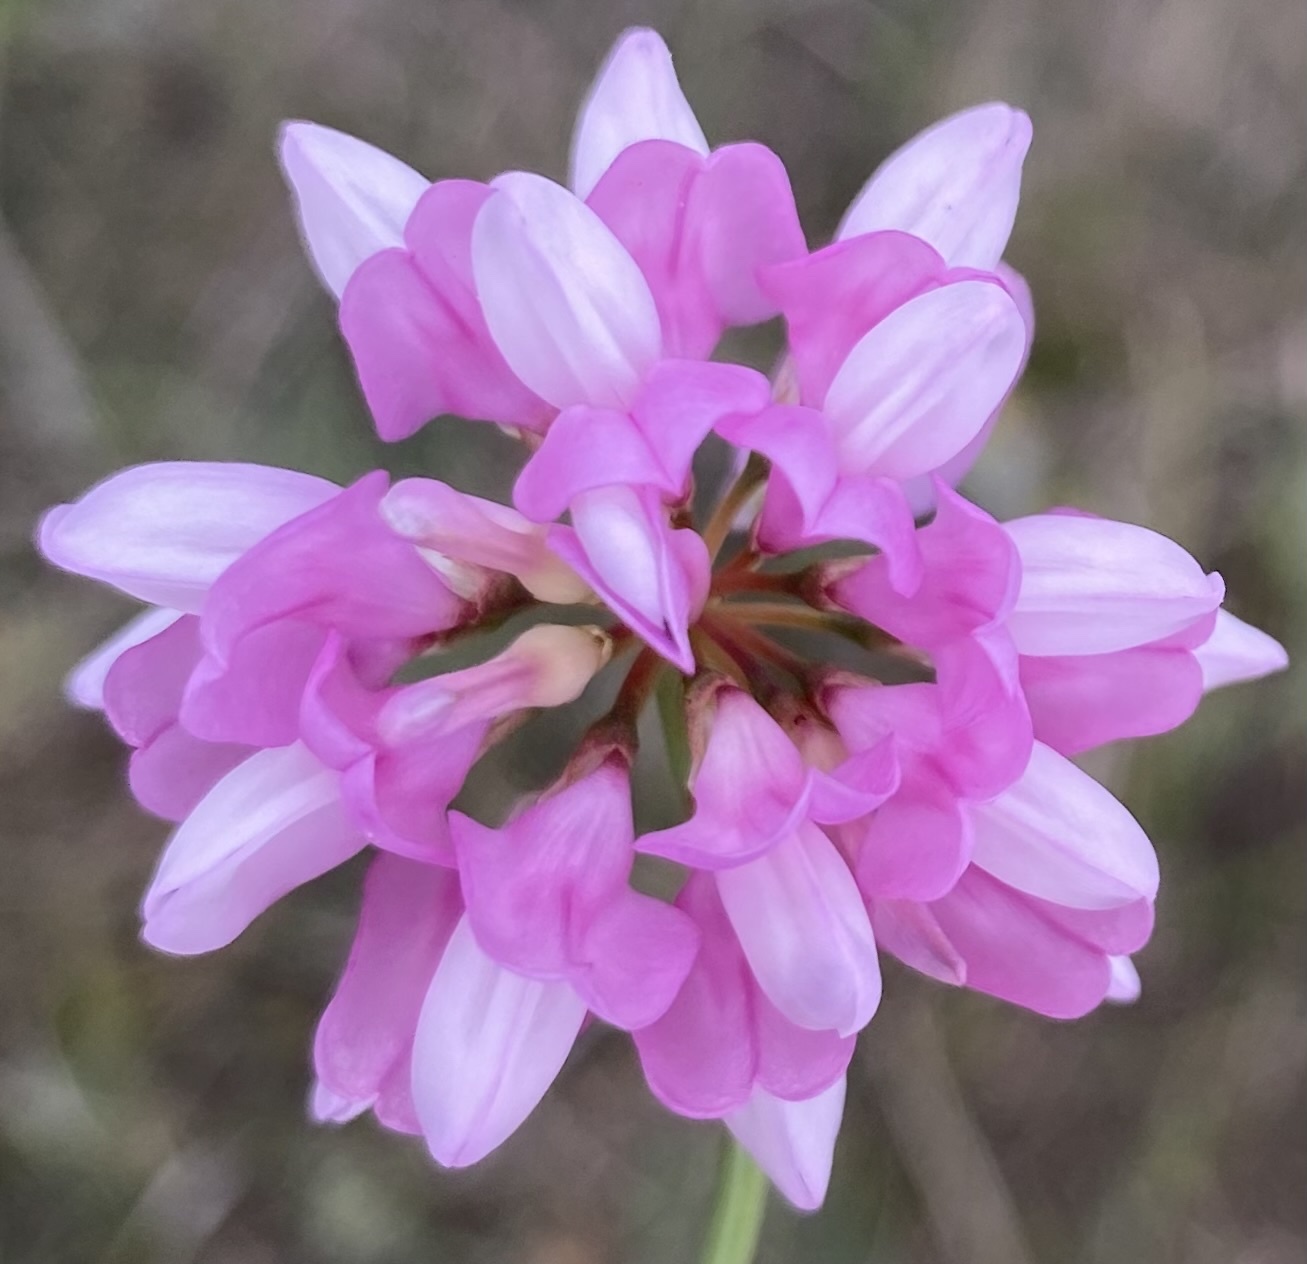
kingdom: Plantae
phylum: Tracheophyta
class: Magnoliopsida
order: Fabales
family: Fabaceae
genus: Coronilla
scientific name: Coronilla varia
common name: Crownvetch
